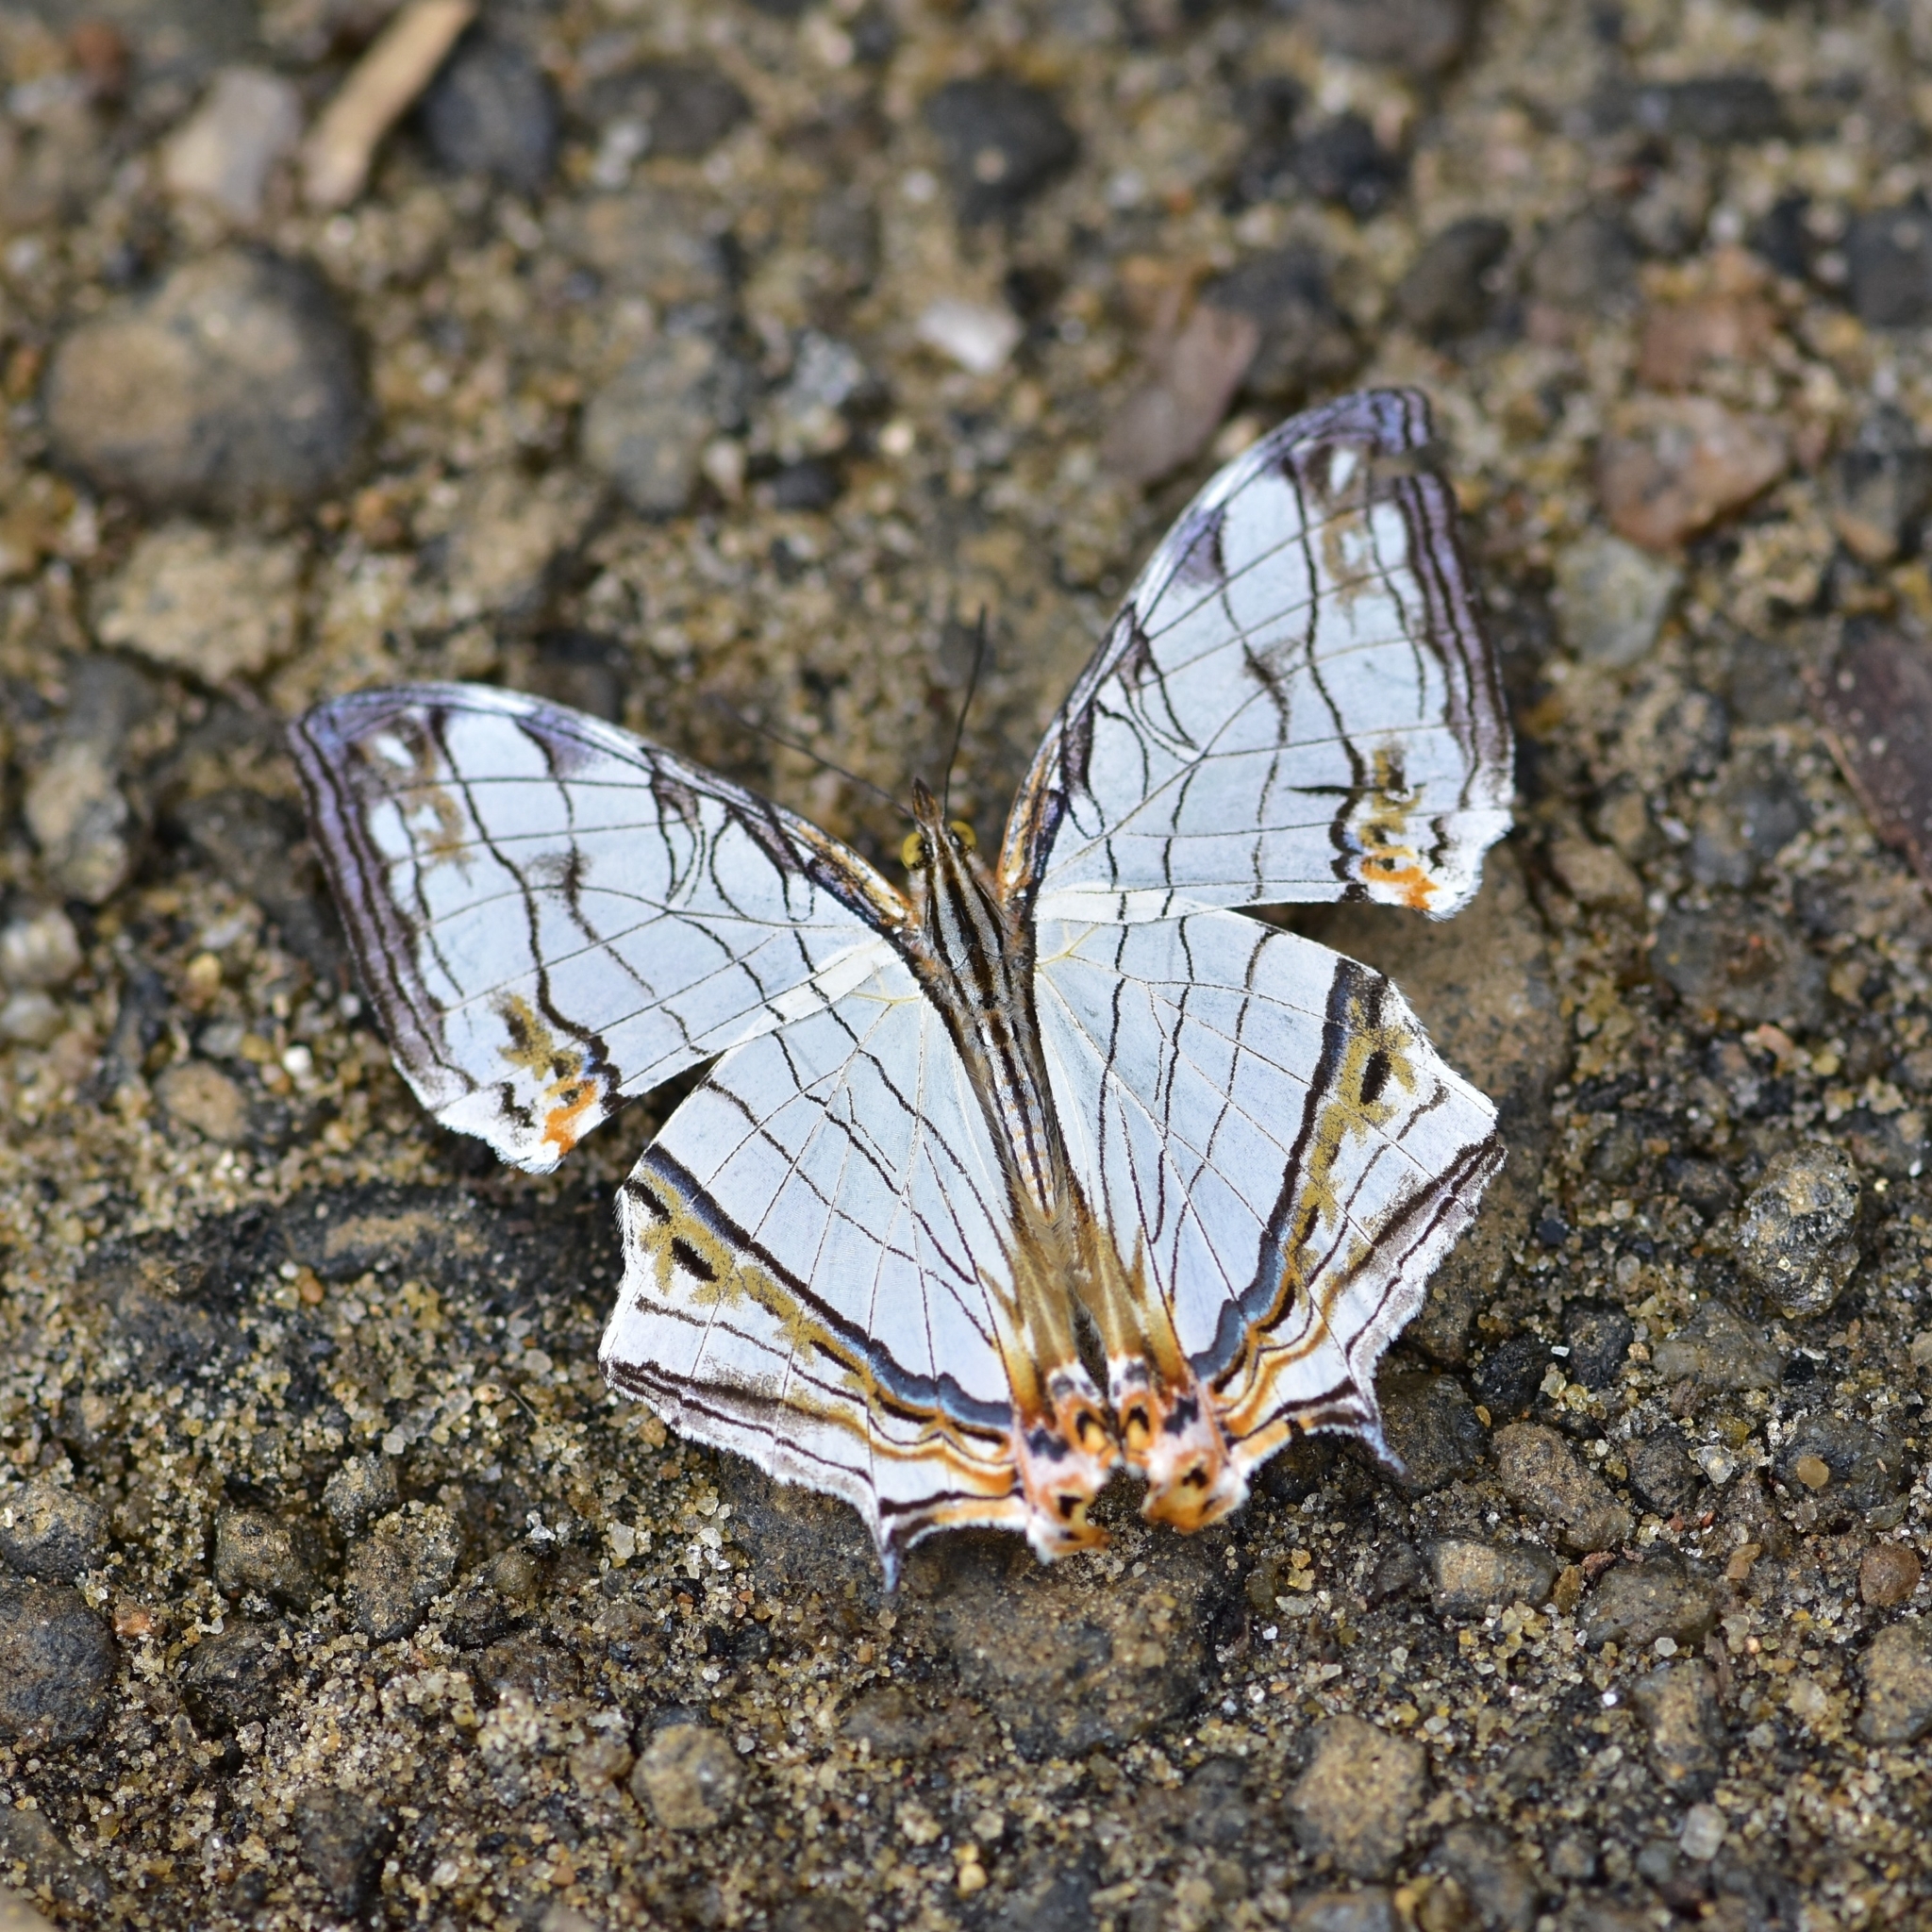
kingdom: Animalia
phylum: Arthropoda
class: Insecta
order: Lepidoptera
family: Nymphalidae
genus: Cyrestis
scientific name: Cyrestis thyodamas
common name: Common mapwing
